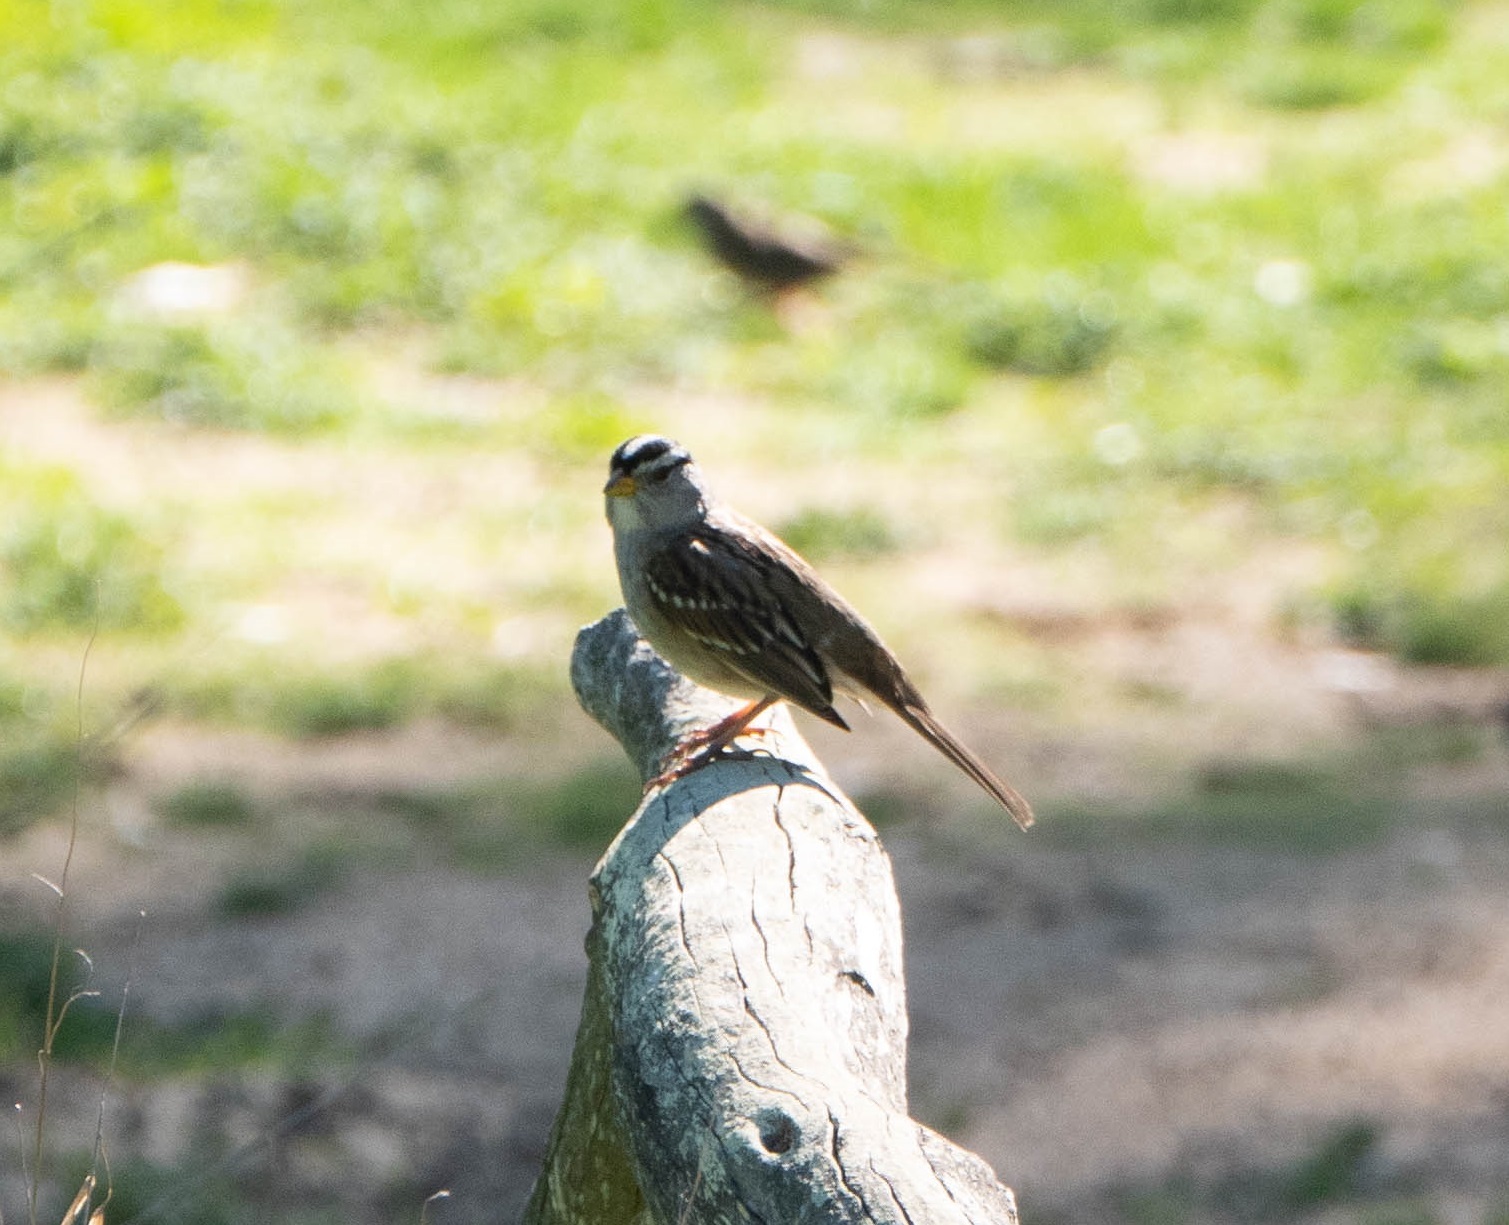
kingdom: Animalia
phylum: Chordata
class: Aves
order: Passeriformes
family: Passerellidae
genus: Zonotrichia
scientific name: Zonotrichia leucophrys
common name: White-crowned sparrow
